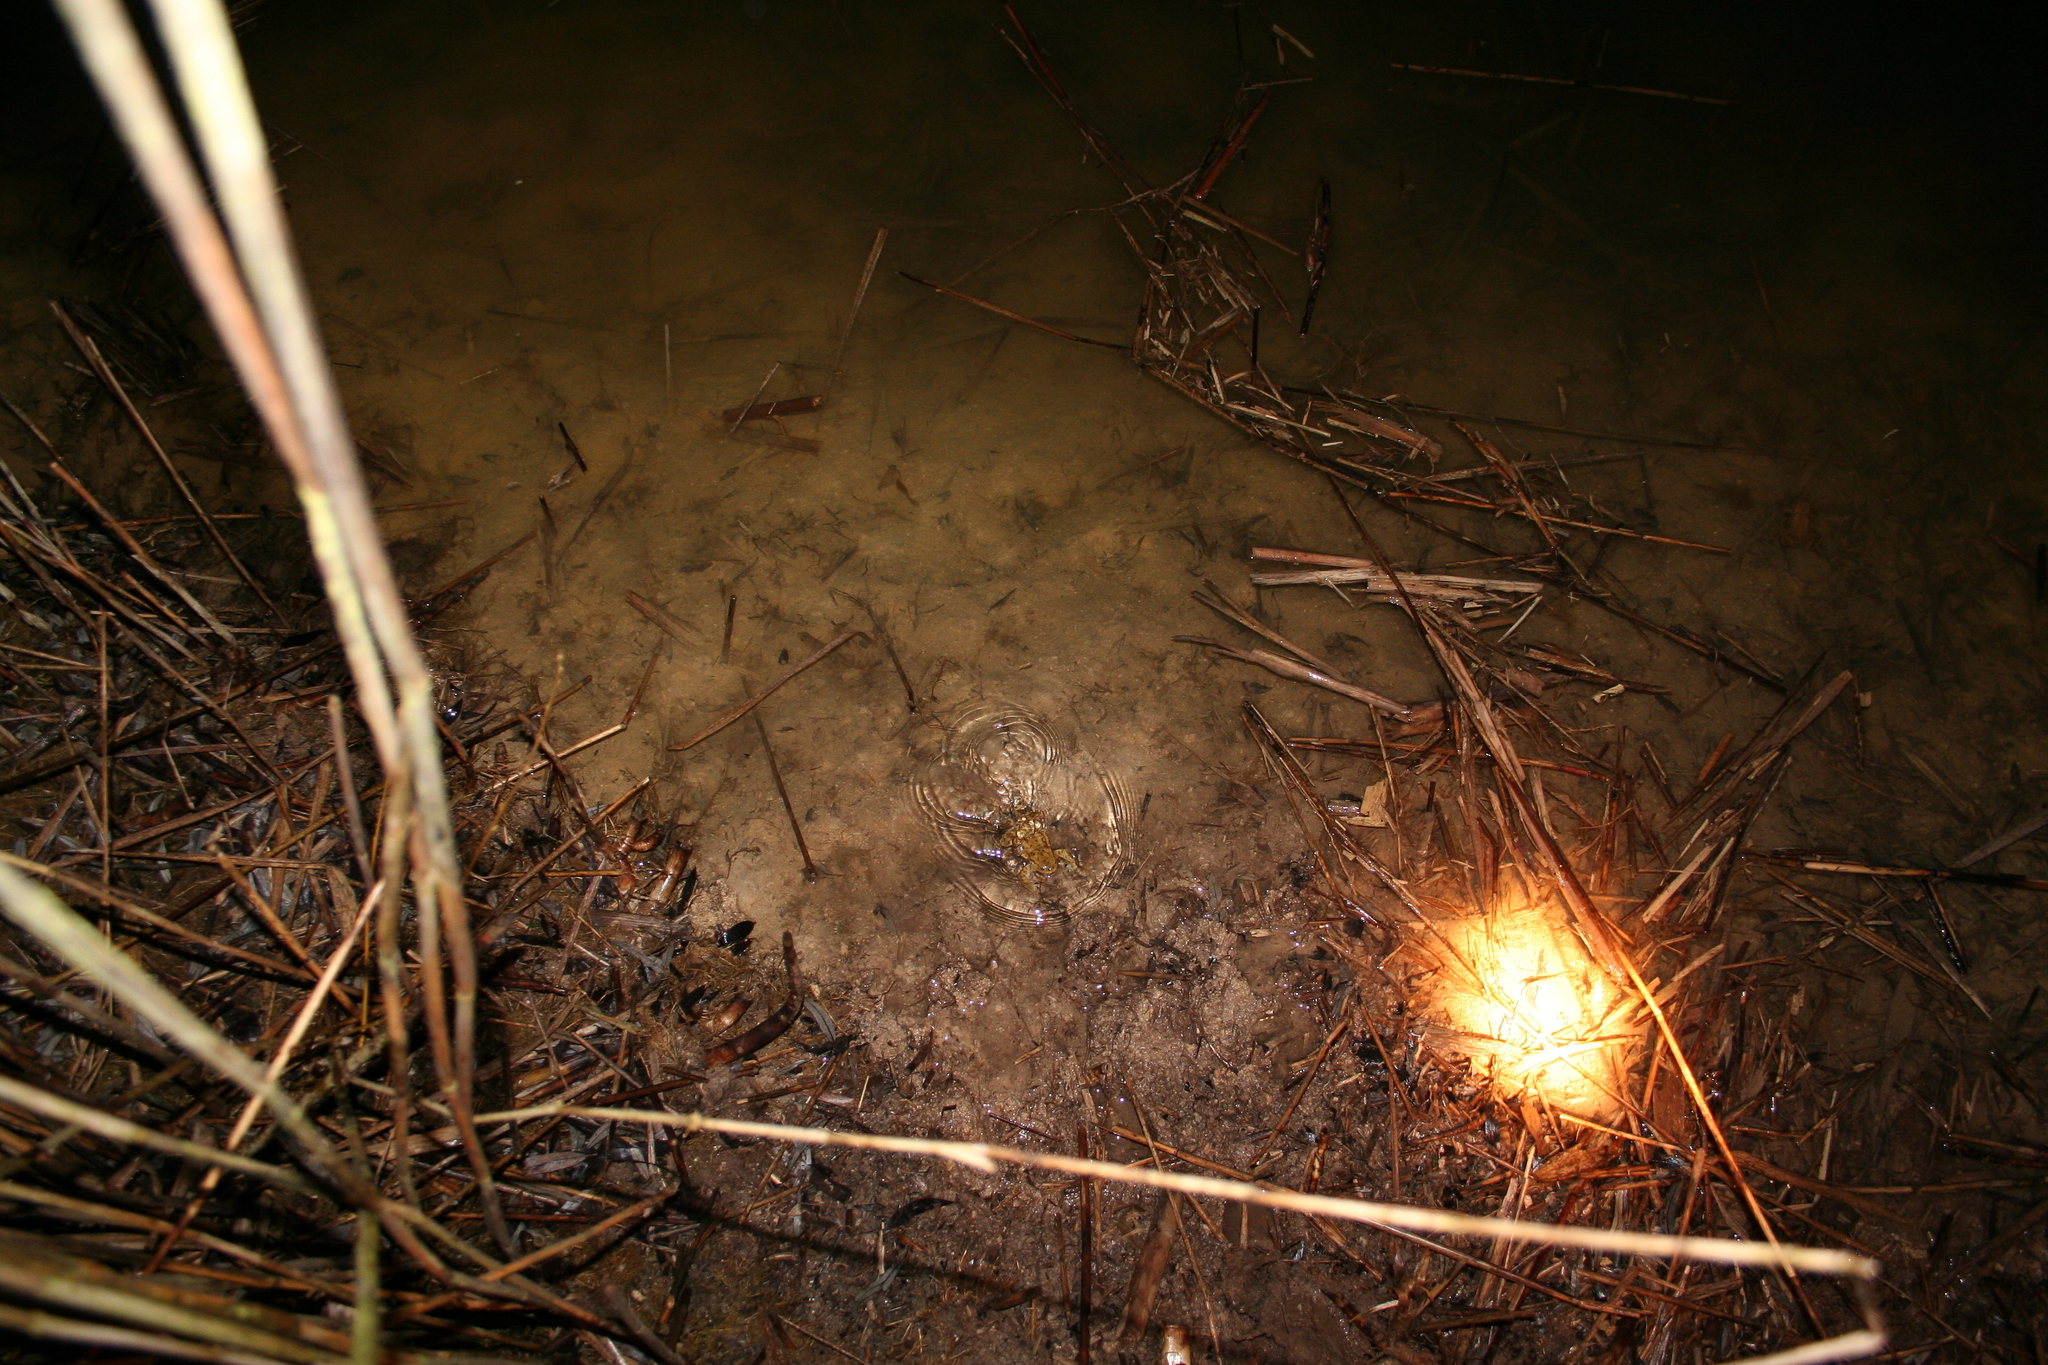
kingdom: Animalia
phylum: Chordata
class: Amphibia
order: Anura
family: Bufonidae
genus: Bufo
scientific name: Bufo bufo
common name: Common toad
